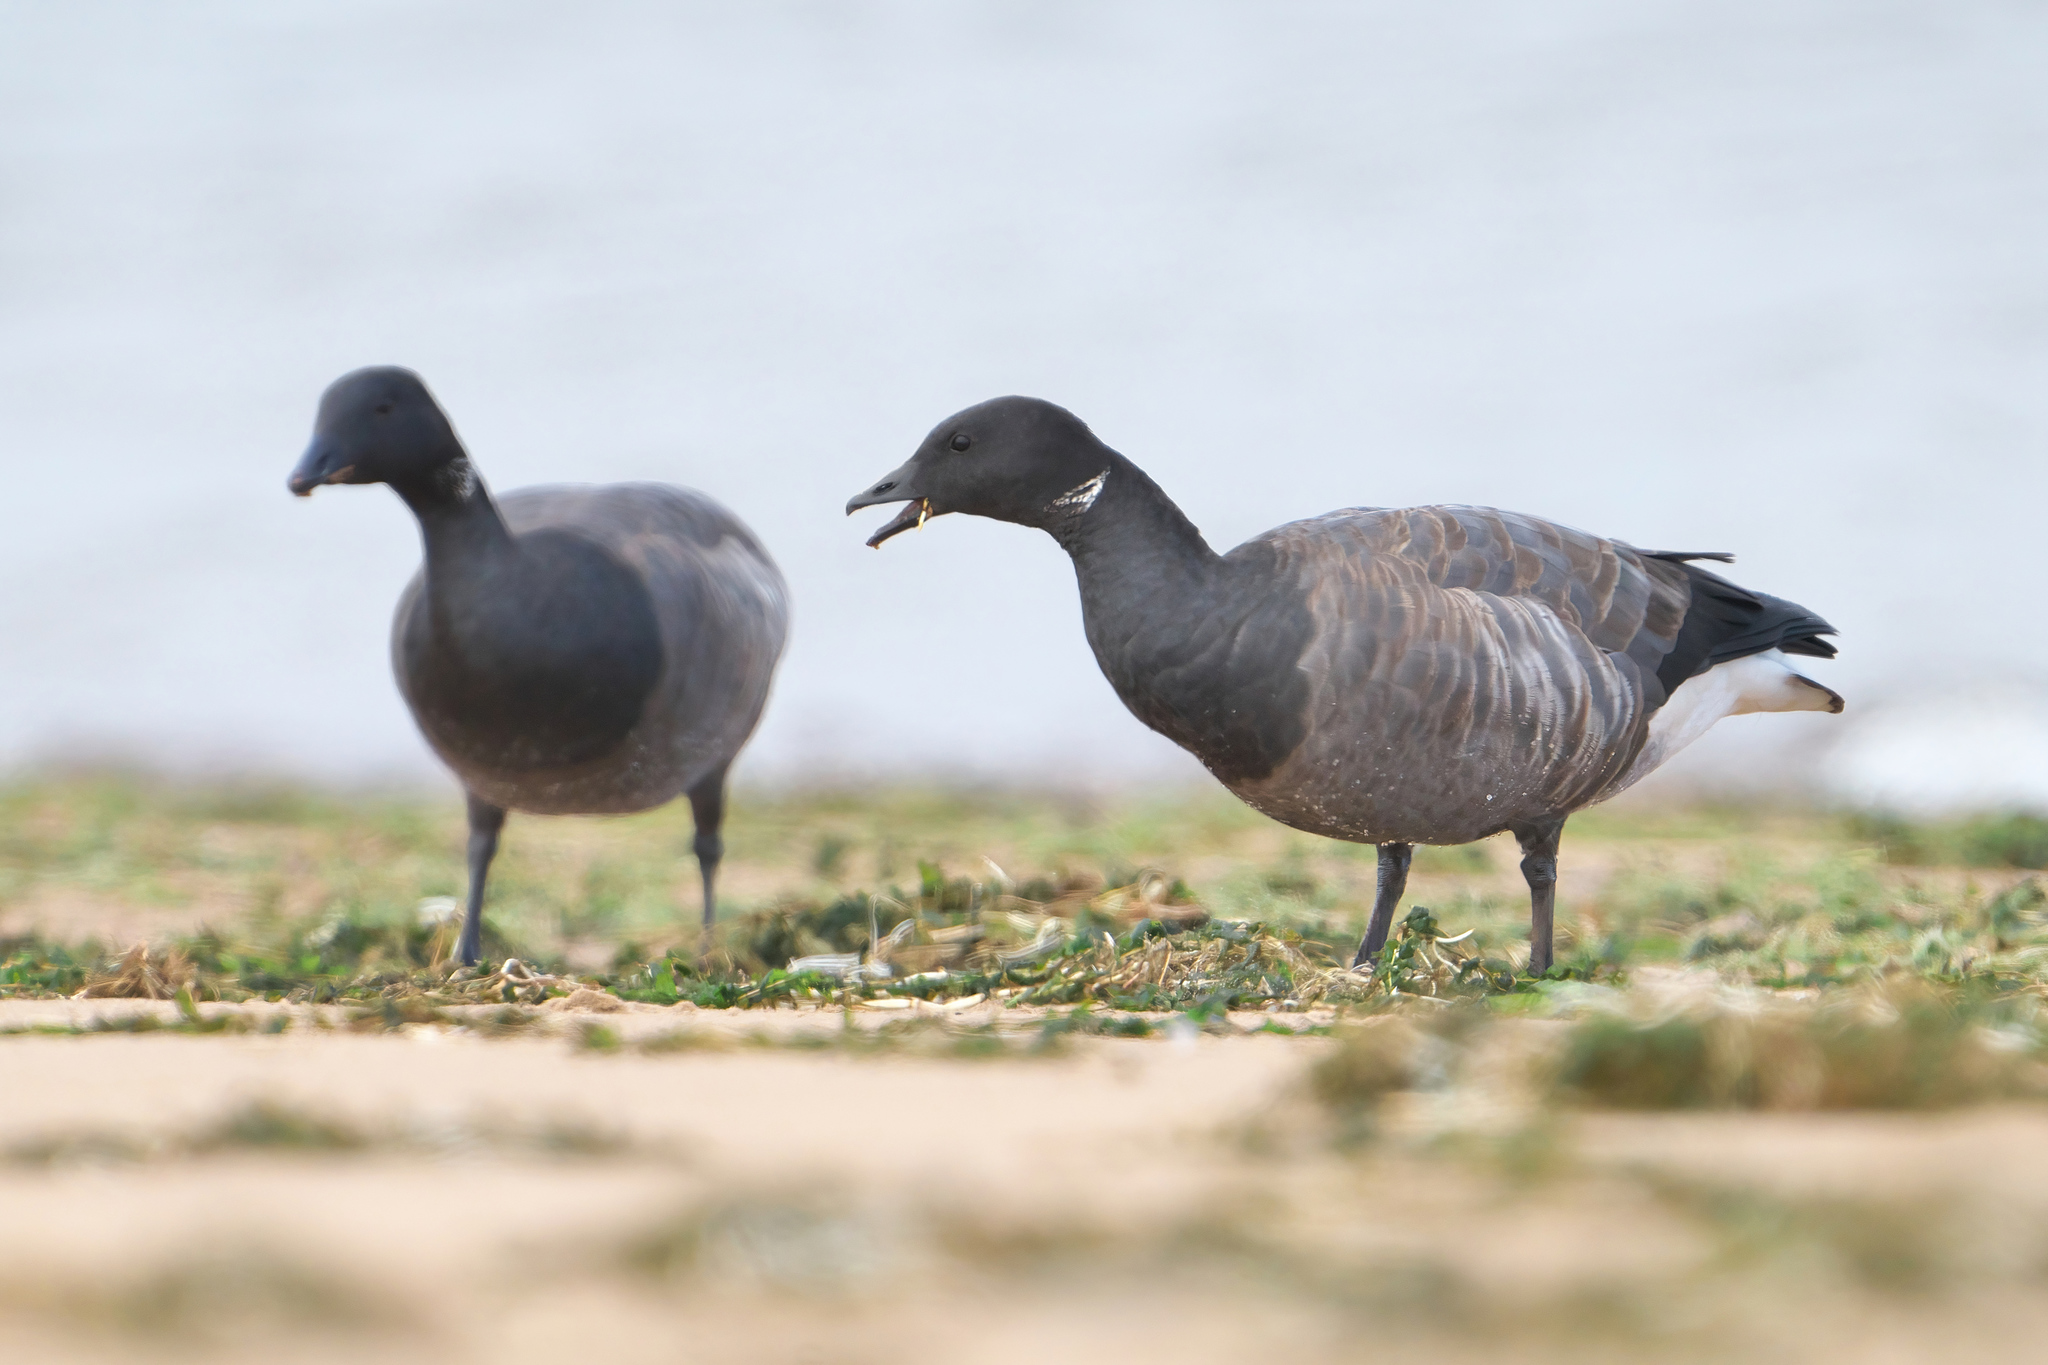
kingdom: Animalia
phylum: Chordata
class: Aves
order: Anseriformes
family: Anatidae
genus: Branta
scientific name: Branta bernicla
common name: Brant goose
